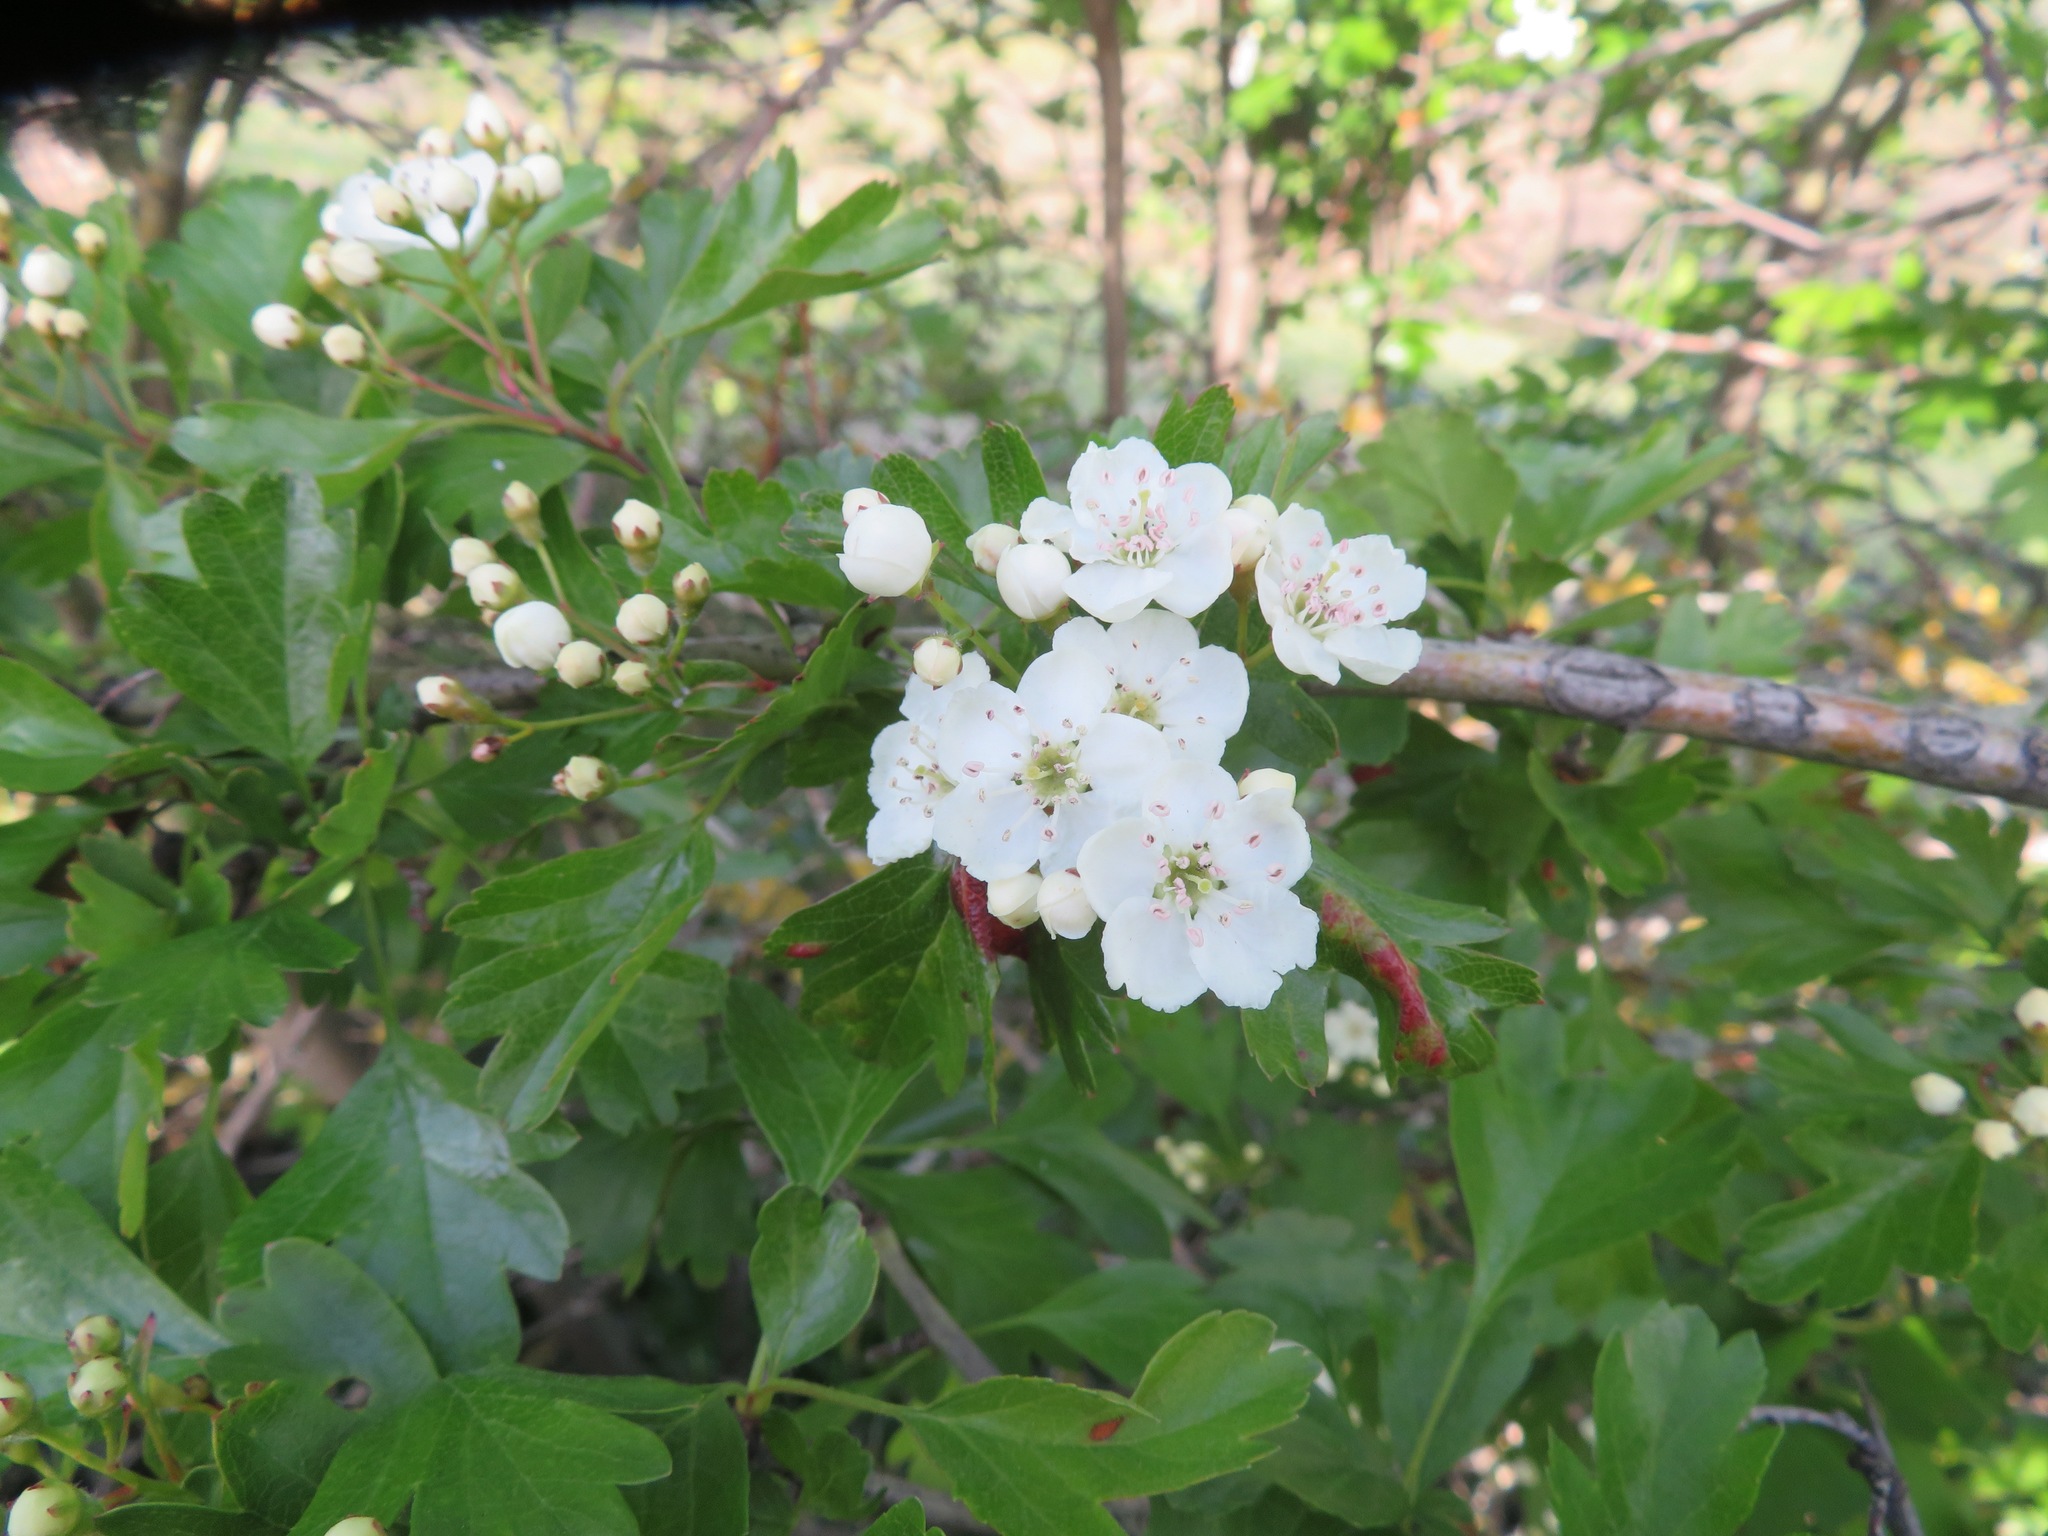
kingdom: Plantae
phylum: Tracheophyta
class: Magnoliopsida
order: Rosales
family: Rosaceae
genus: Crataegus
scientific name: Crataegus monogyna
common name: Hawthorn
